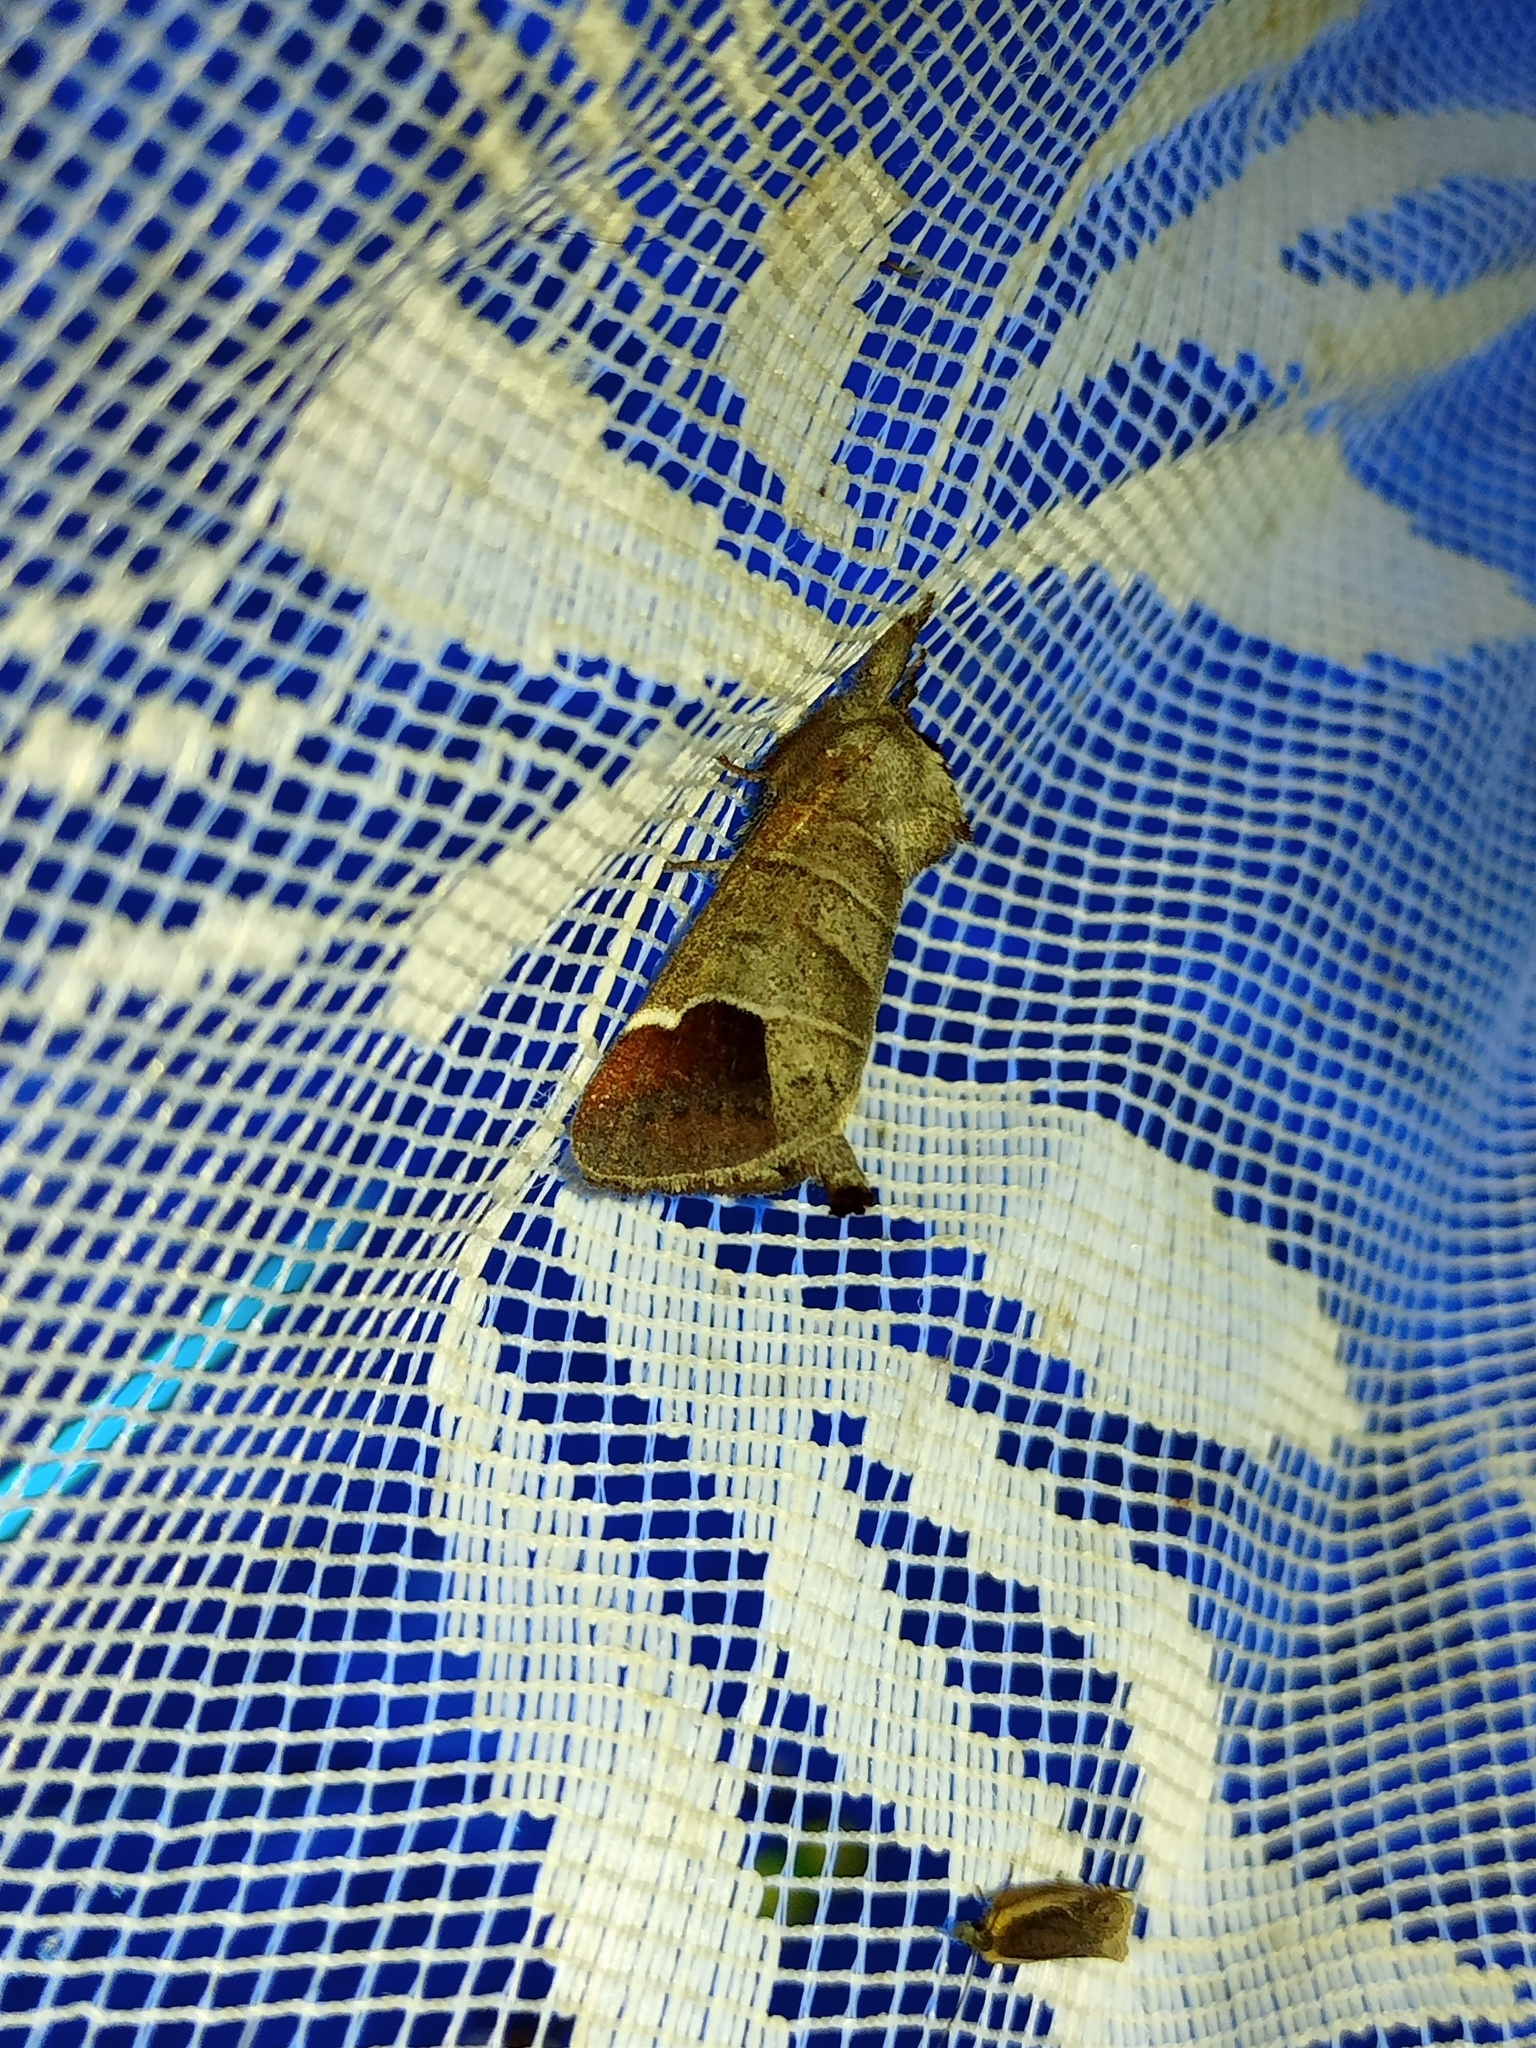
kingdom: Animalia
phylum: Arthropoda
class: Insecta
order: Lepidoptera
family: Notodontidae
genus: Clostera
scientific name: Clostera curtula
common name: Chocolate-tip
